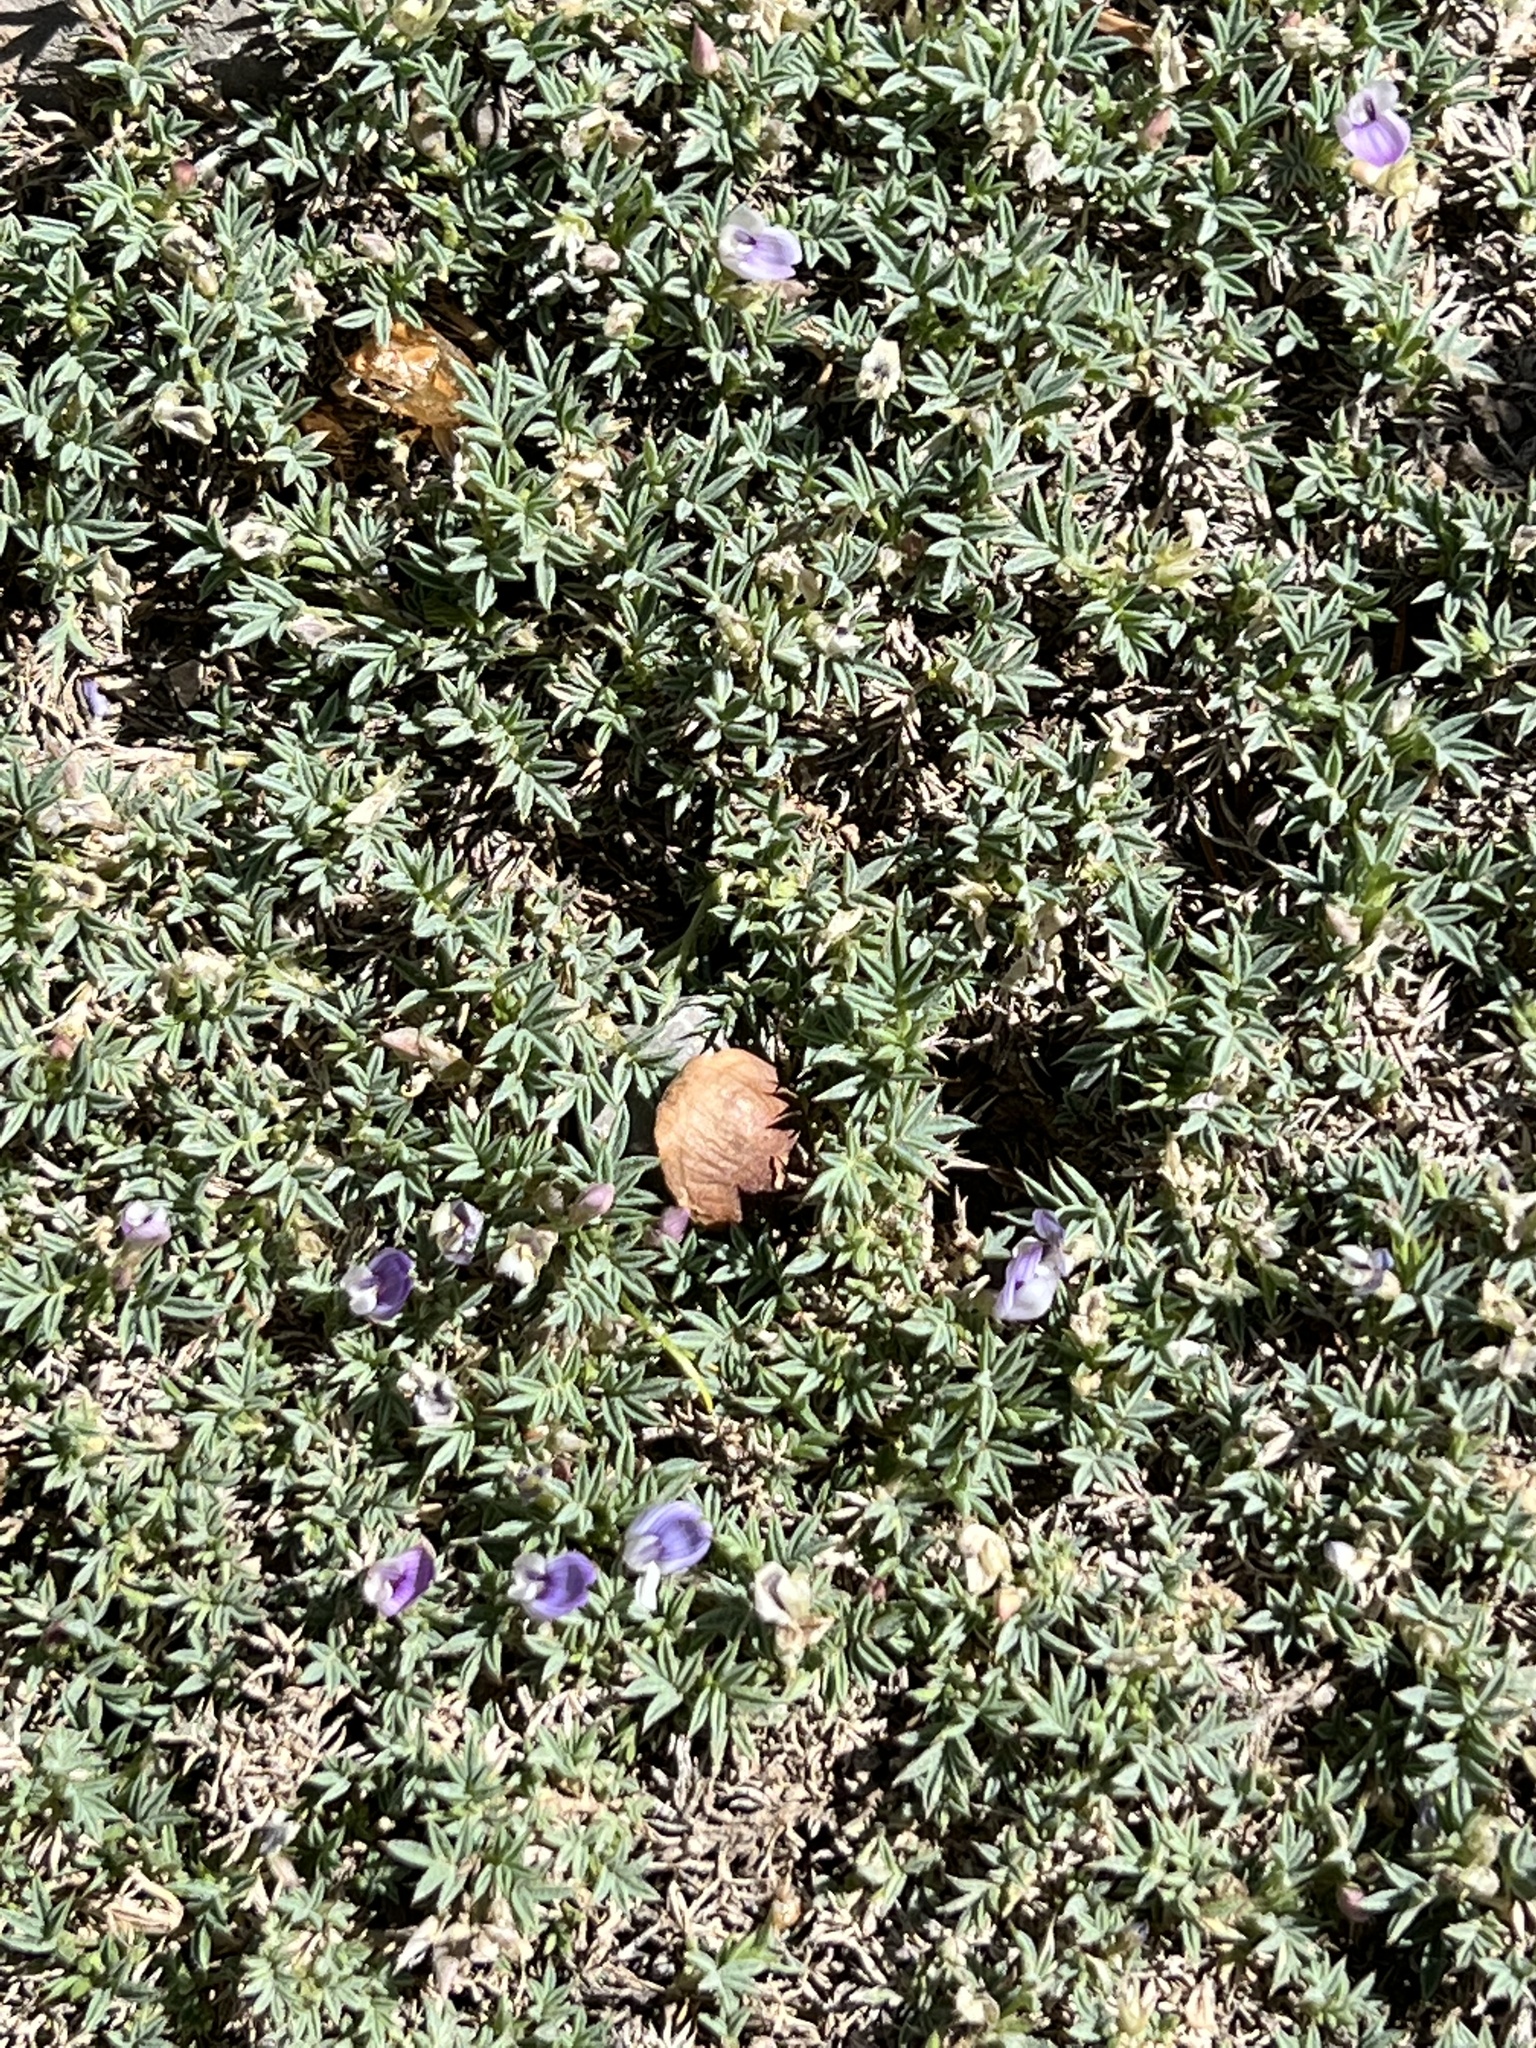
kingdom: Plantae
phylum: Tracheophyta
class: Magnoliopsida
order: Fabales
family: Fabaceae
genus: Astragalus
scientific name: Astragalus kentrophyta
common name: Prickly milk-vetch
